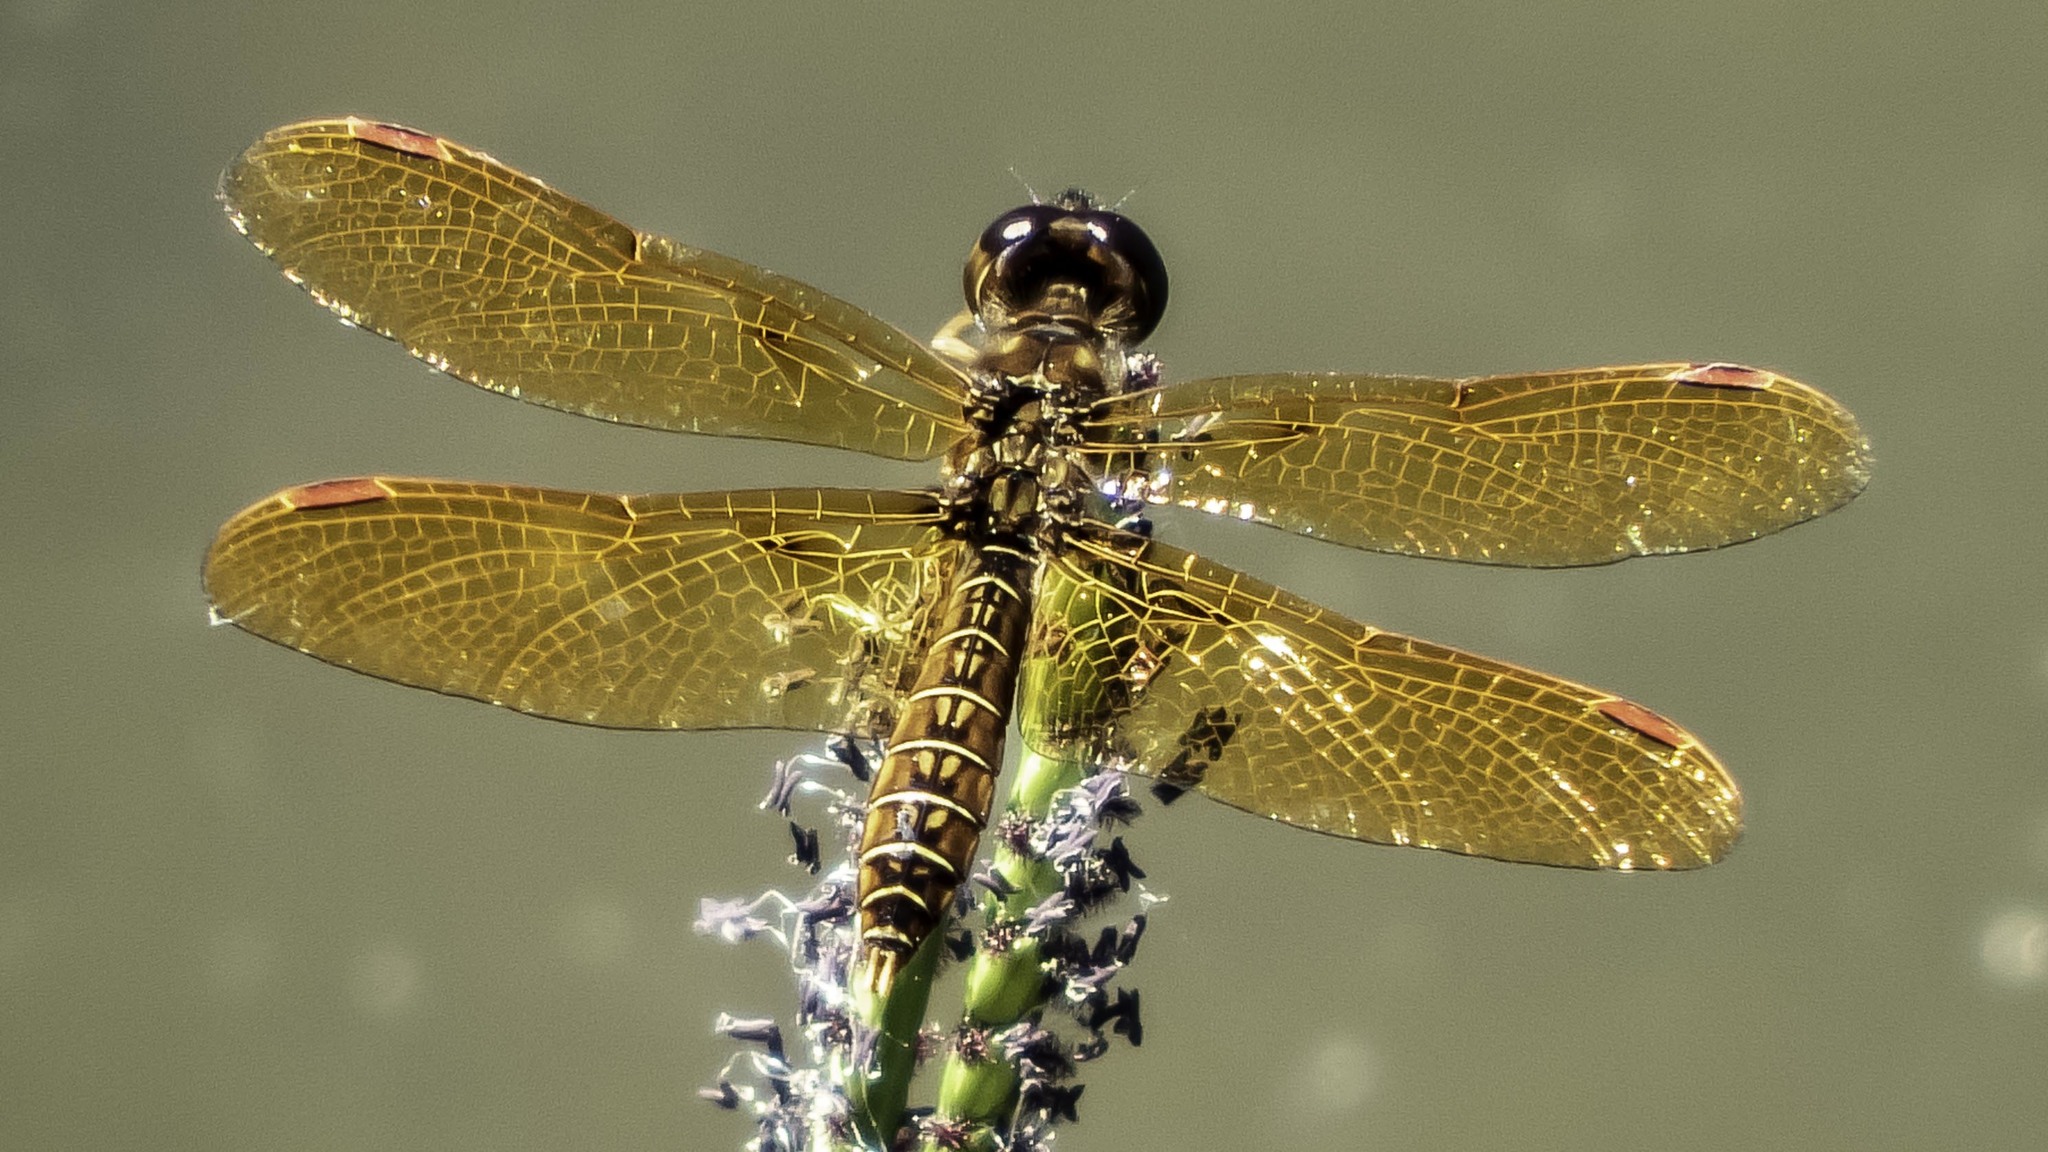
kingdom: Animalia
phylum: Arthropoda
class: Insecta
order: Odonata
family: Libellulidae
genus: Perithemis
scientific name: Perithemis tenera
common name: Eastern amberwing
